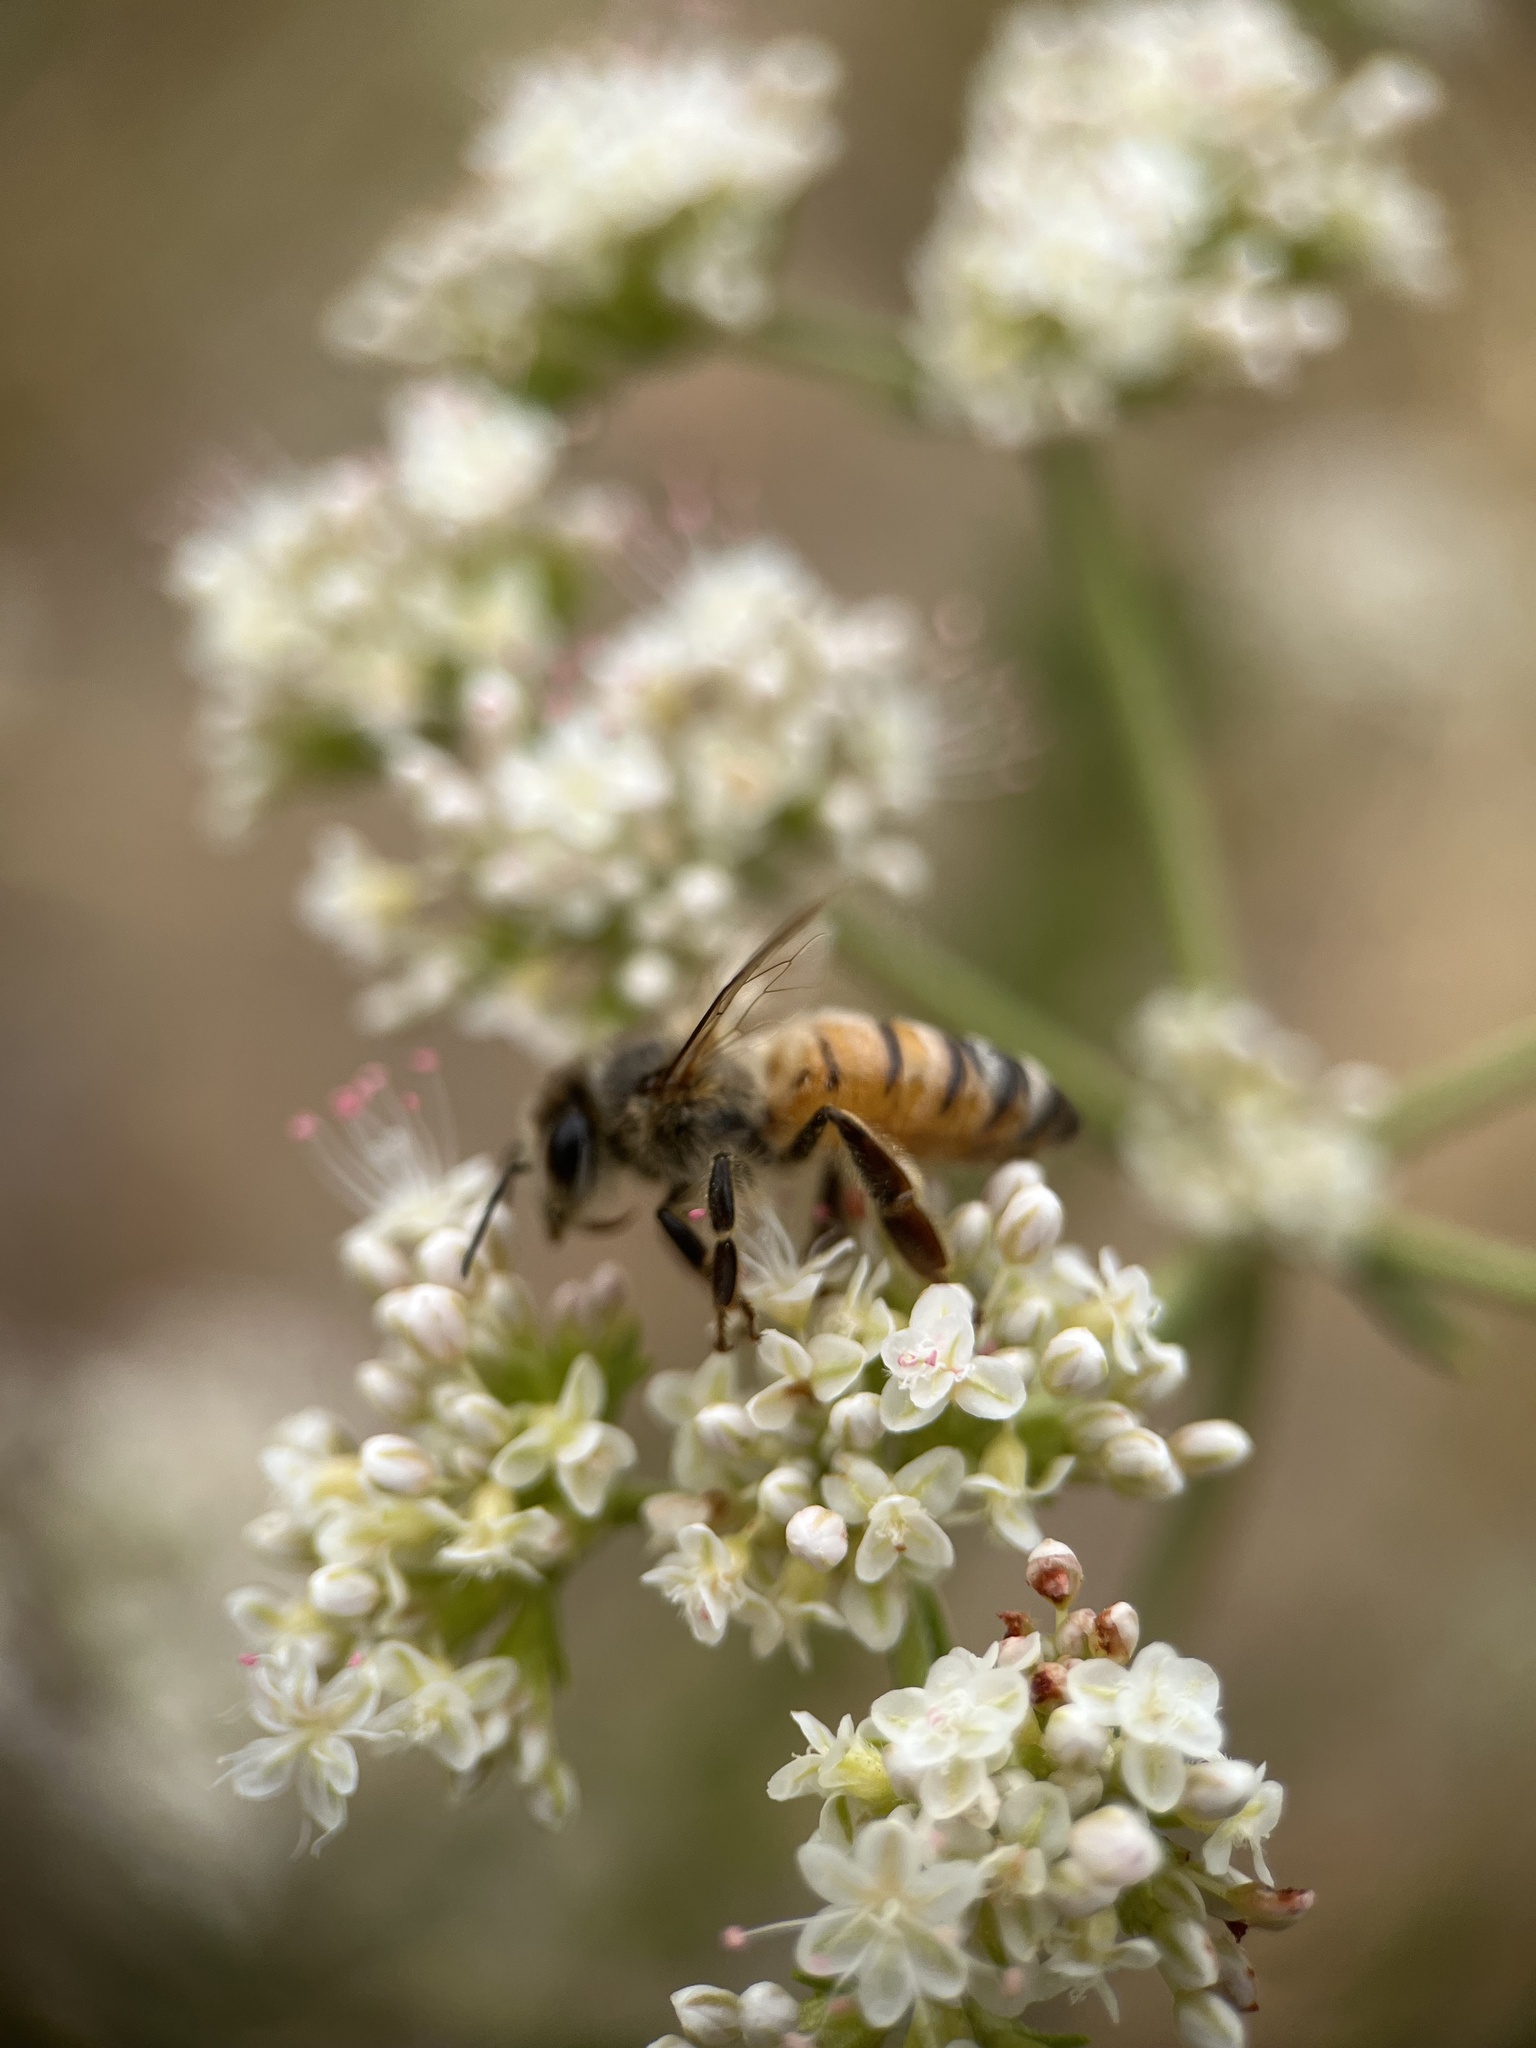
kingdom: Animalia
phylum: Arthropoda
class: Insecta
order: Hymenoptera
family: Apidae
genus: Apis
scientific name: Apis mellifera
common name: Honey bee
